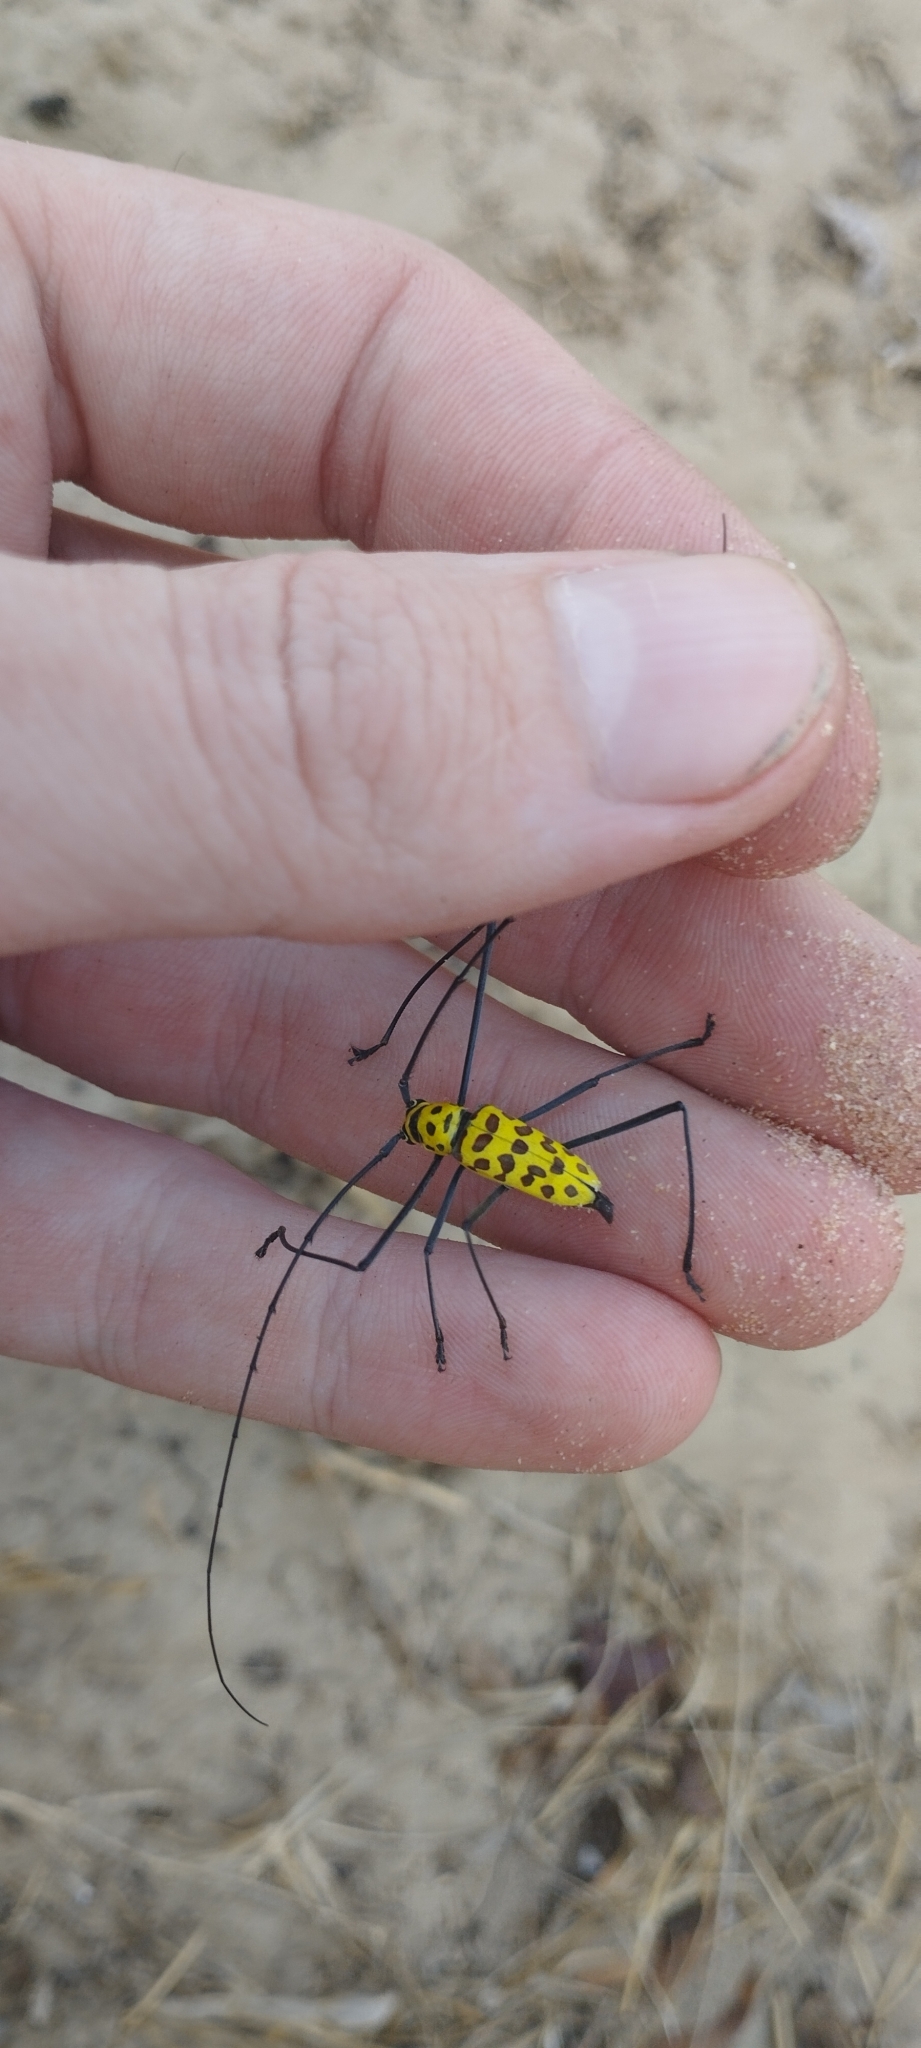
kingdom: Animalia
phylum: Arthropoda
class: Insecta
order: Coleoptera
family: Cerambycidae
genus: Gerania
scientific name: Gerania boscii
